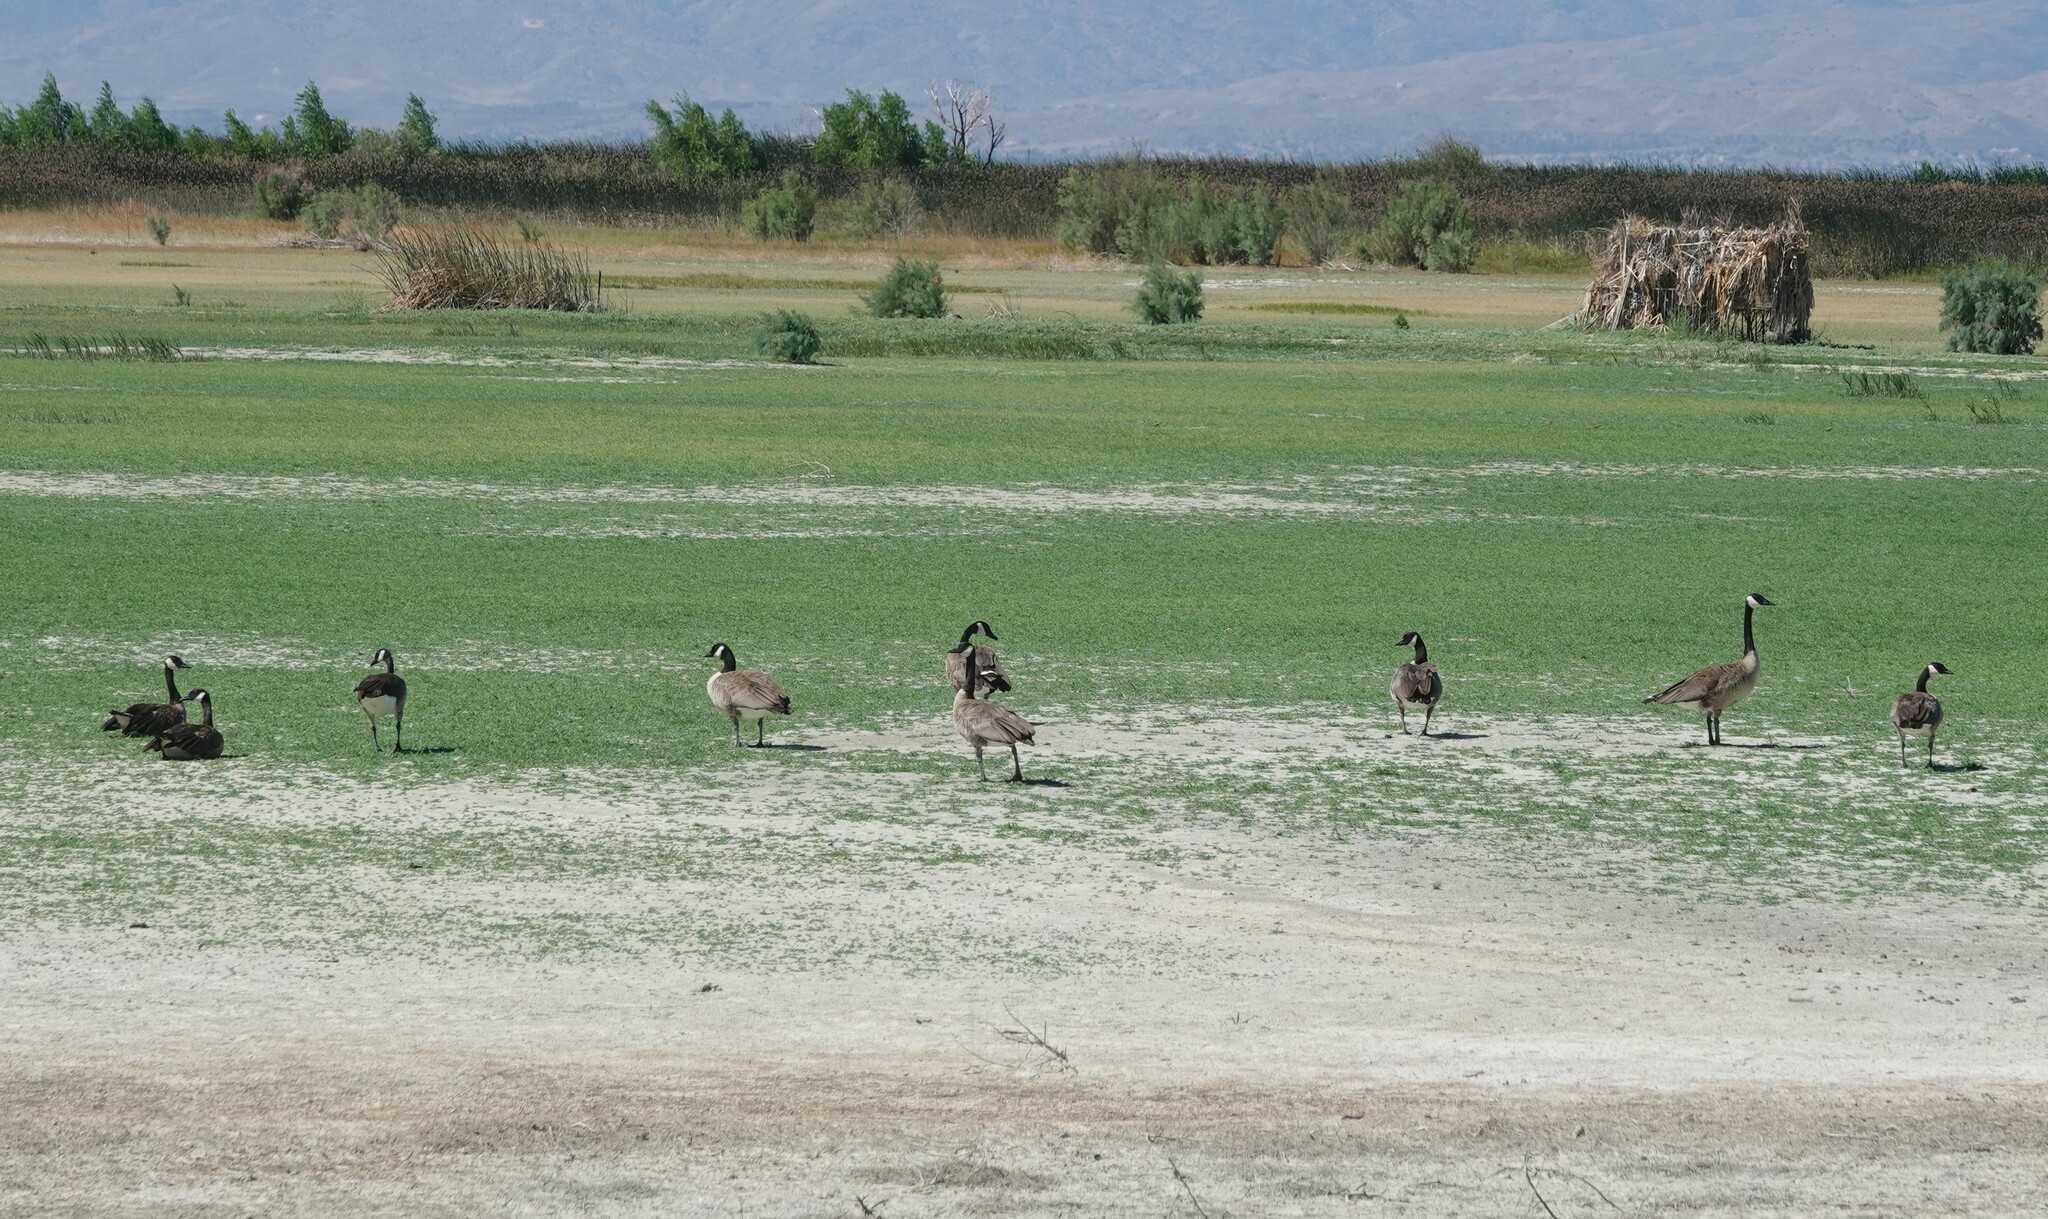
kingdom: Animalia
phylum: Chordata
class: Aves
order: Anseriformes
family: Anatidae
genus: Branta
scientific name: Branta canadensis
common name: Canada goose
